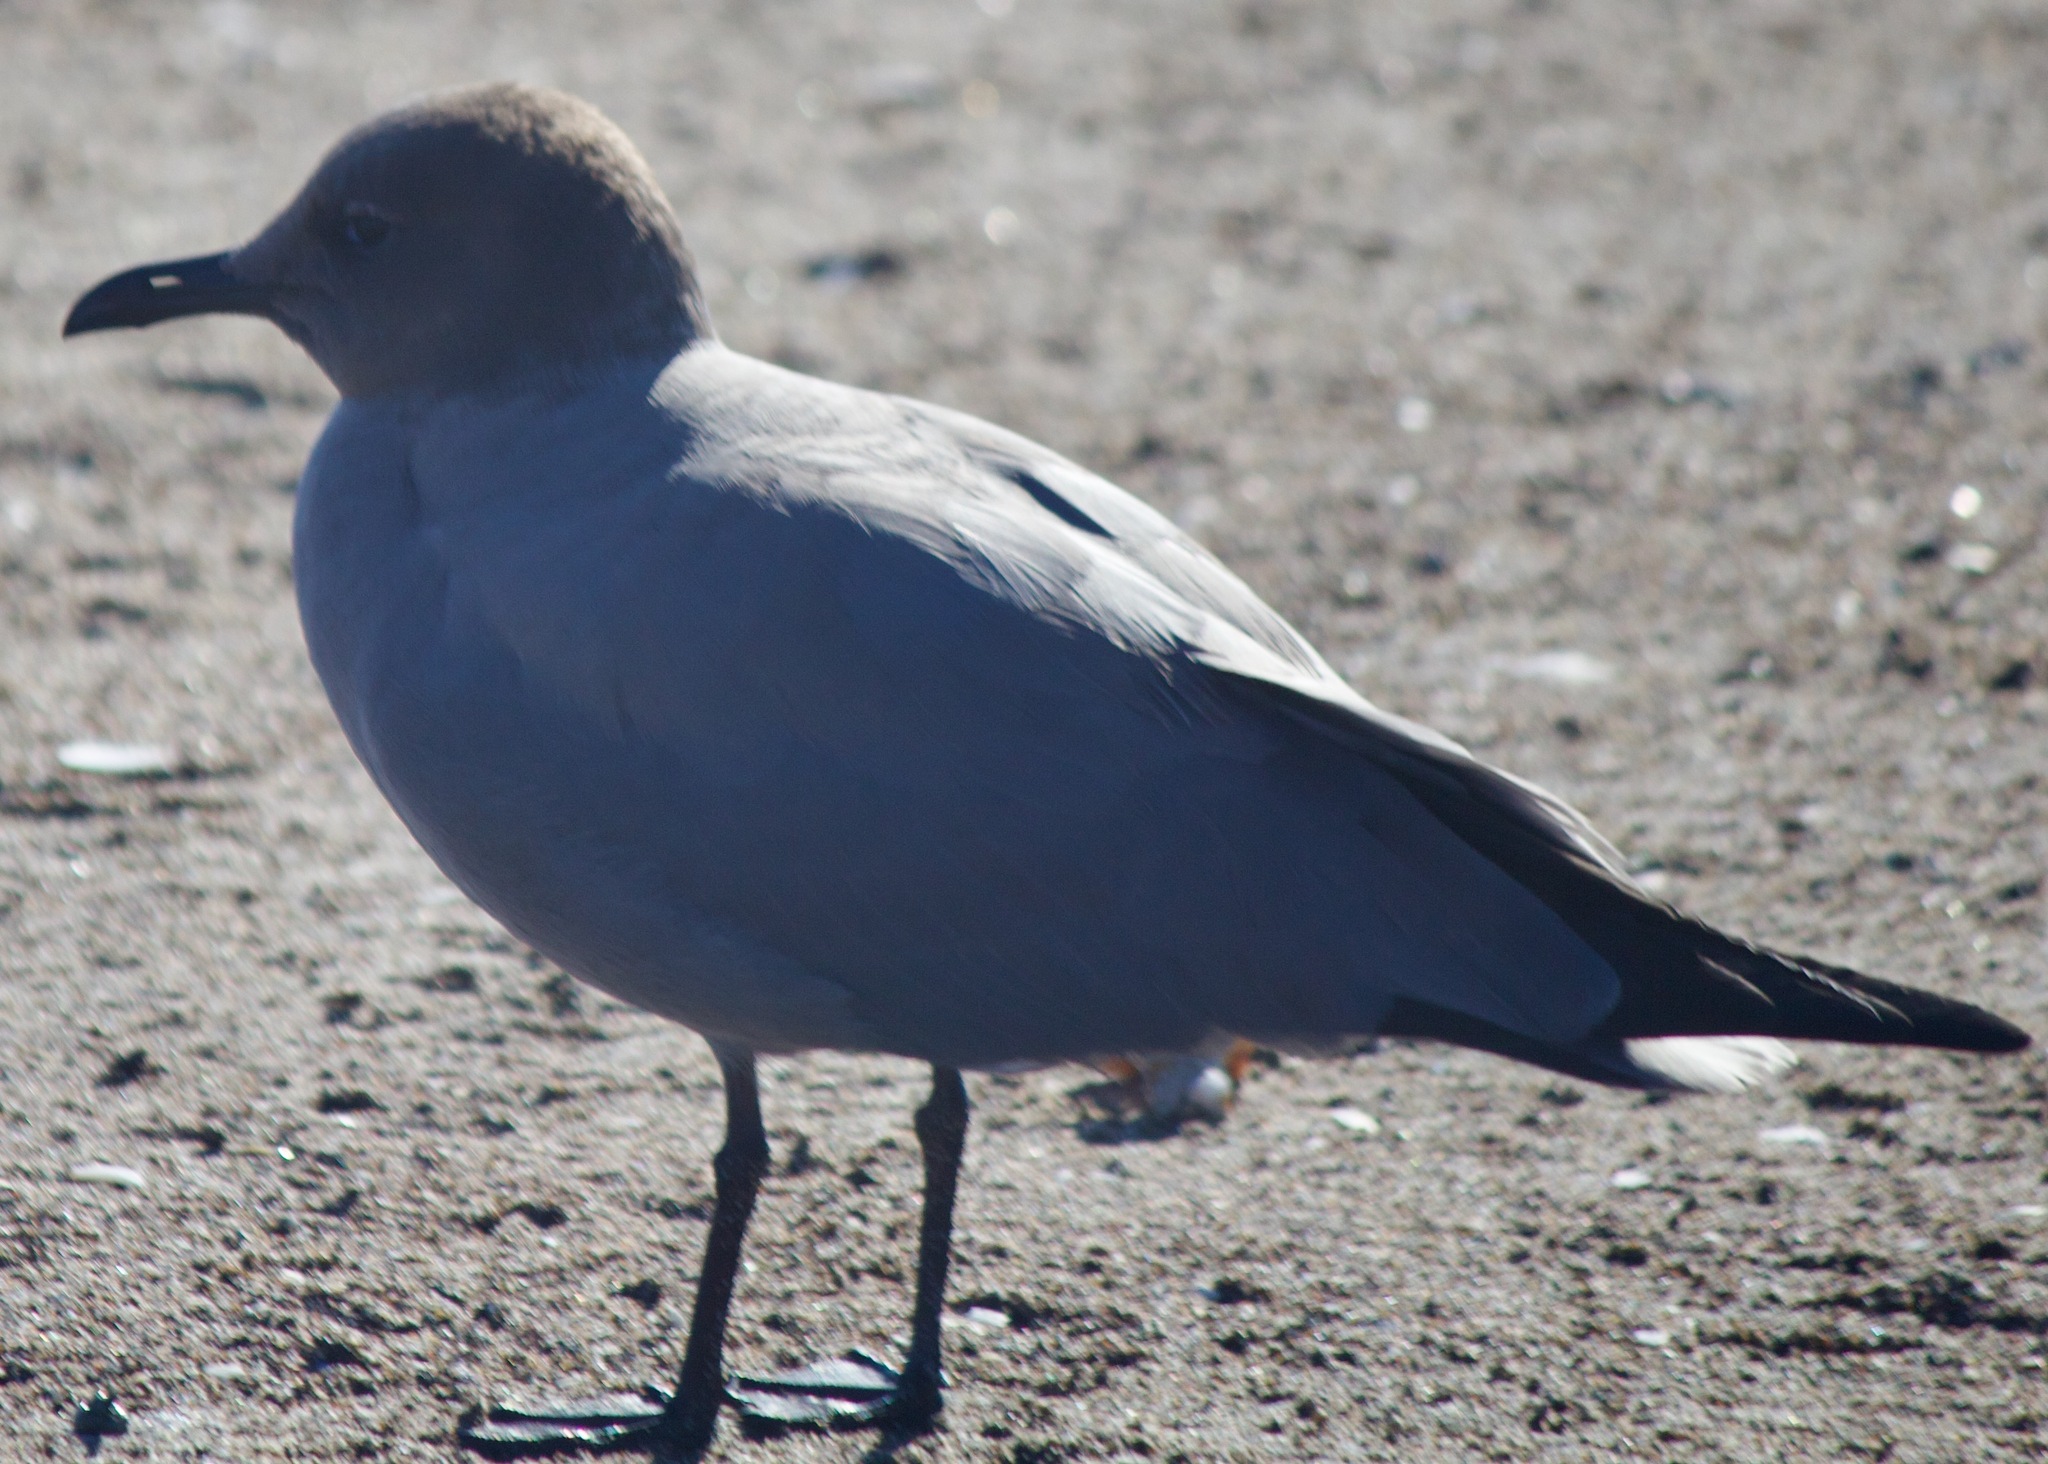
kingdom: Animalia
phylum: Chordata
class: Aves
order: Charadriiformes
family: Laridae
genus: Leucophaeus
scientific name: Leucophaeus modestus
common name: Gray gull
